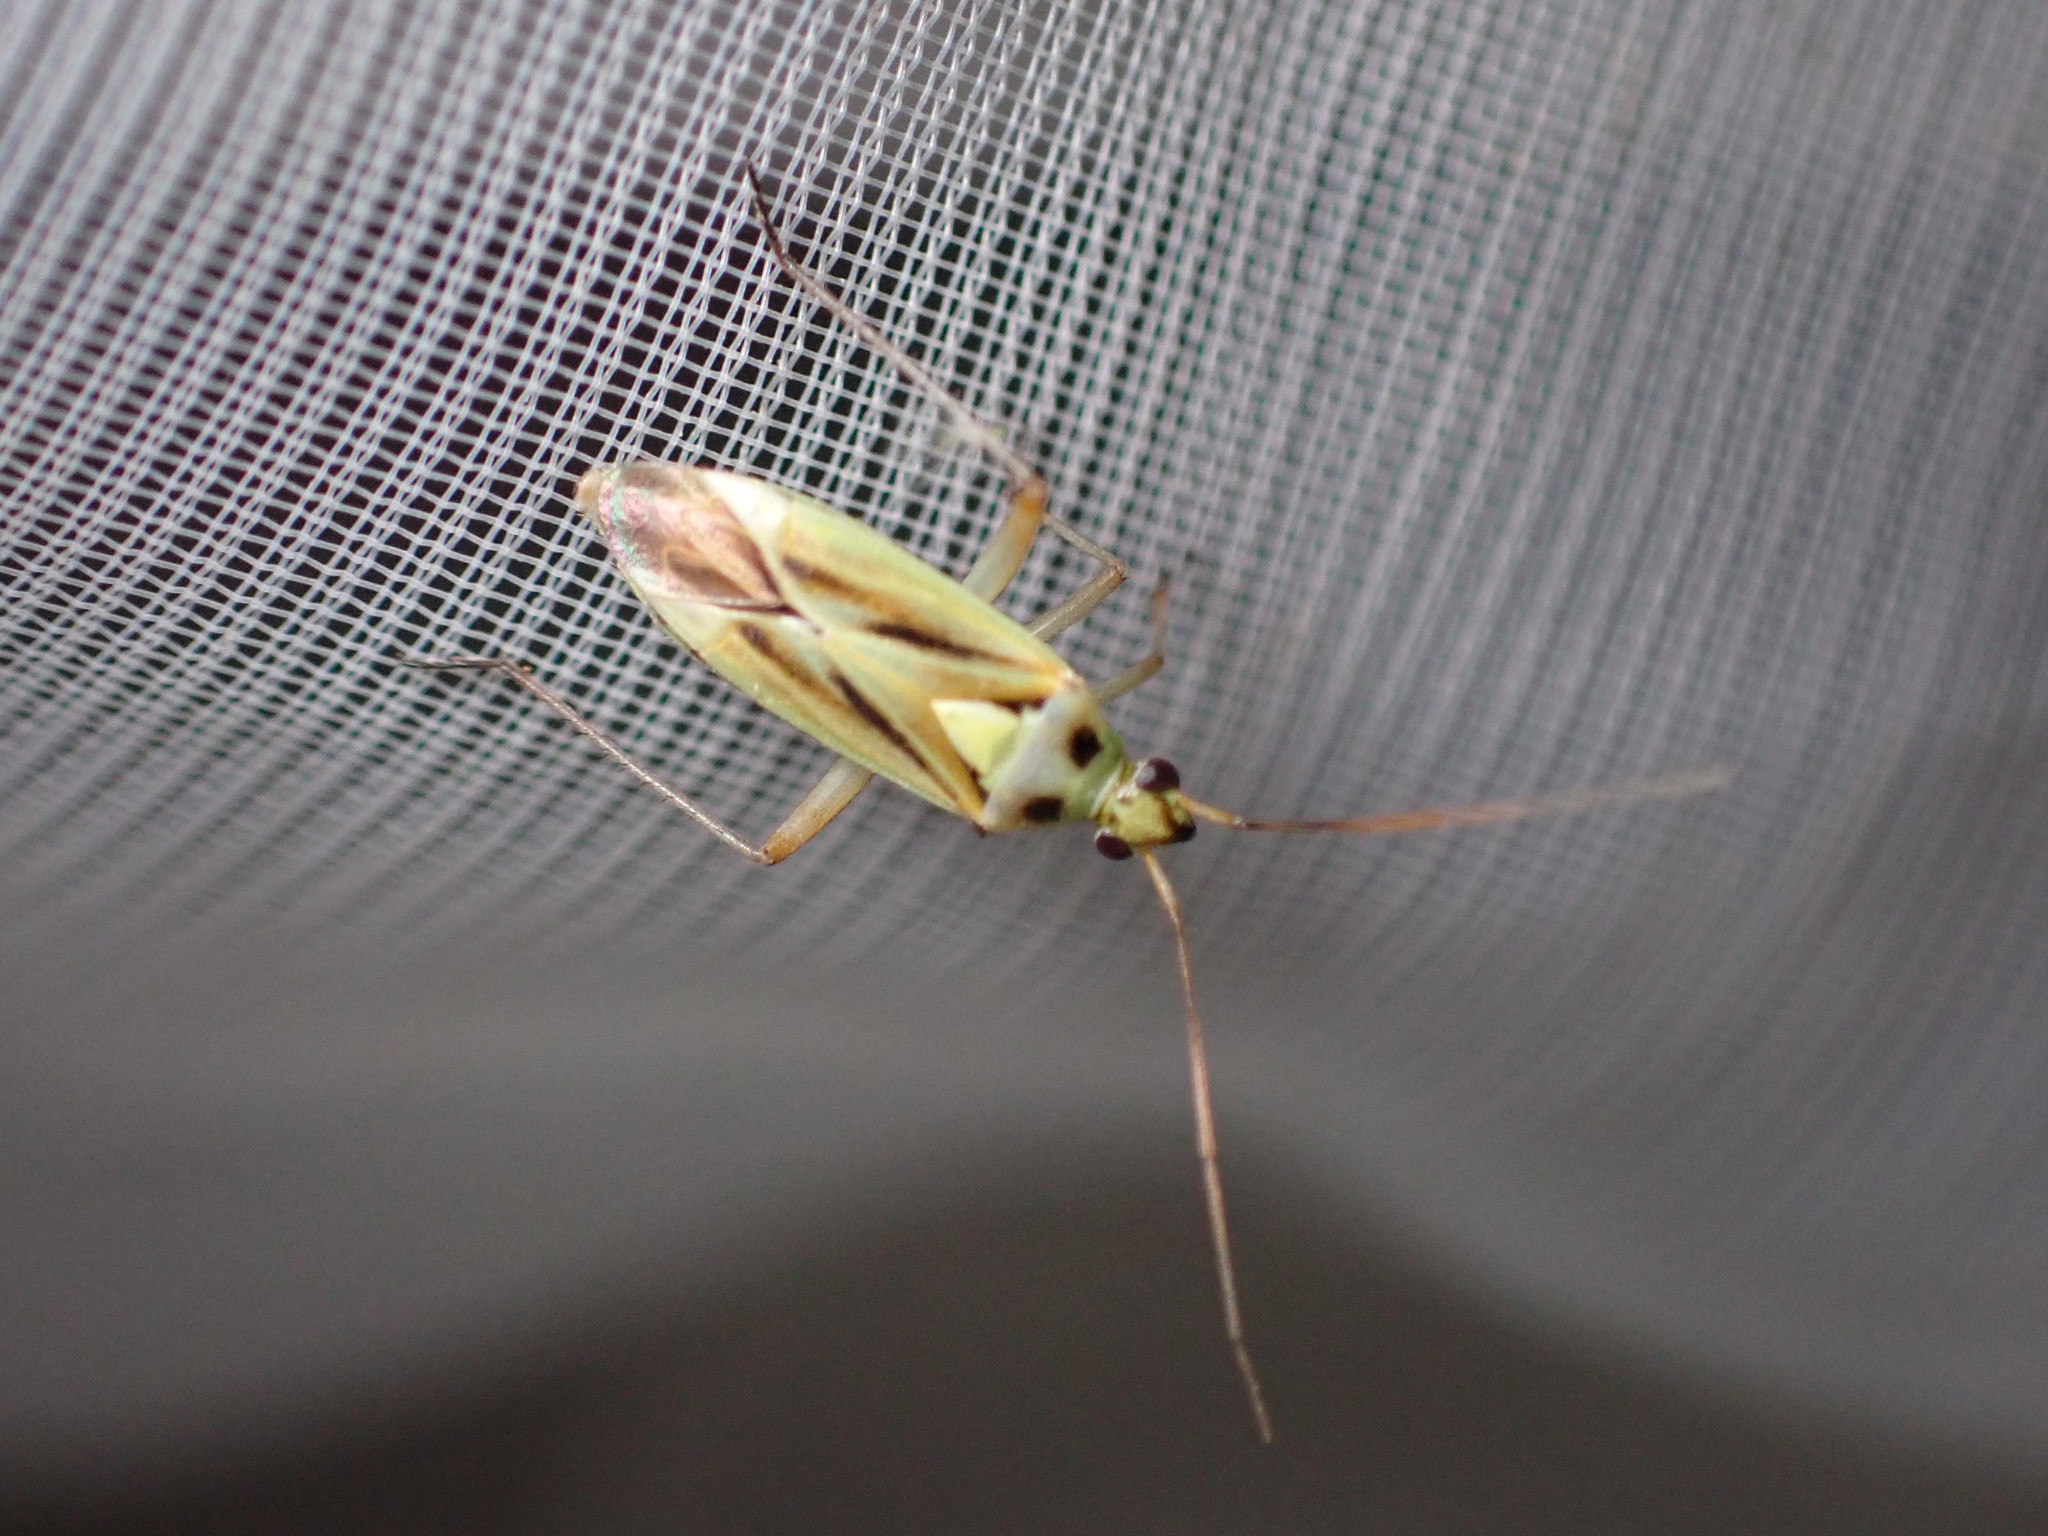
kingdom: Animalia
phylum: Arthropoda
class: Insecta
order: Hemiptera
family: Miridae
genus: Stenotus
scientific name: Stenotus binotatus
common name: Plant bug
